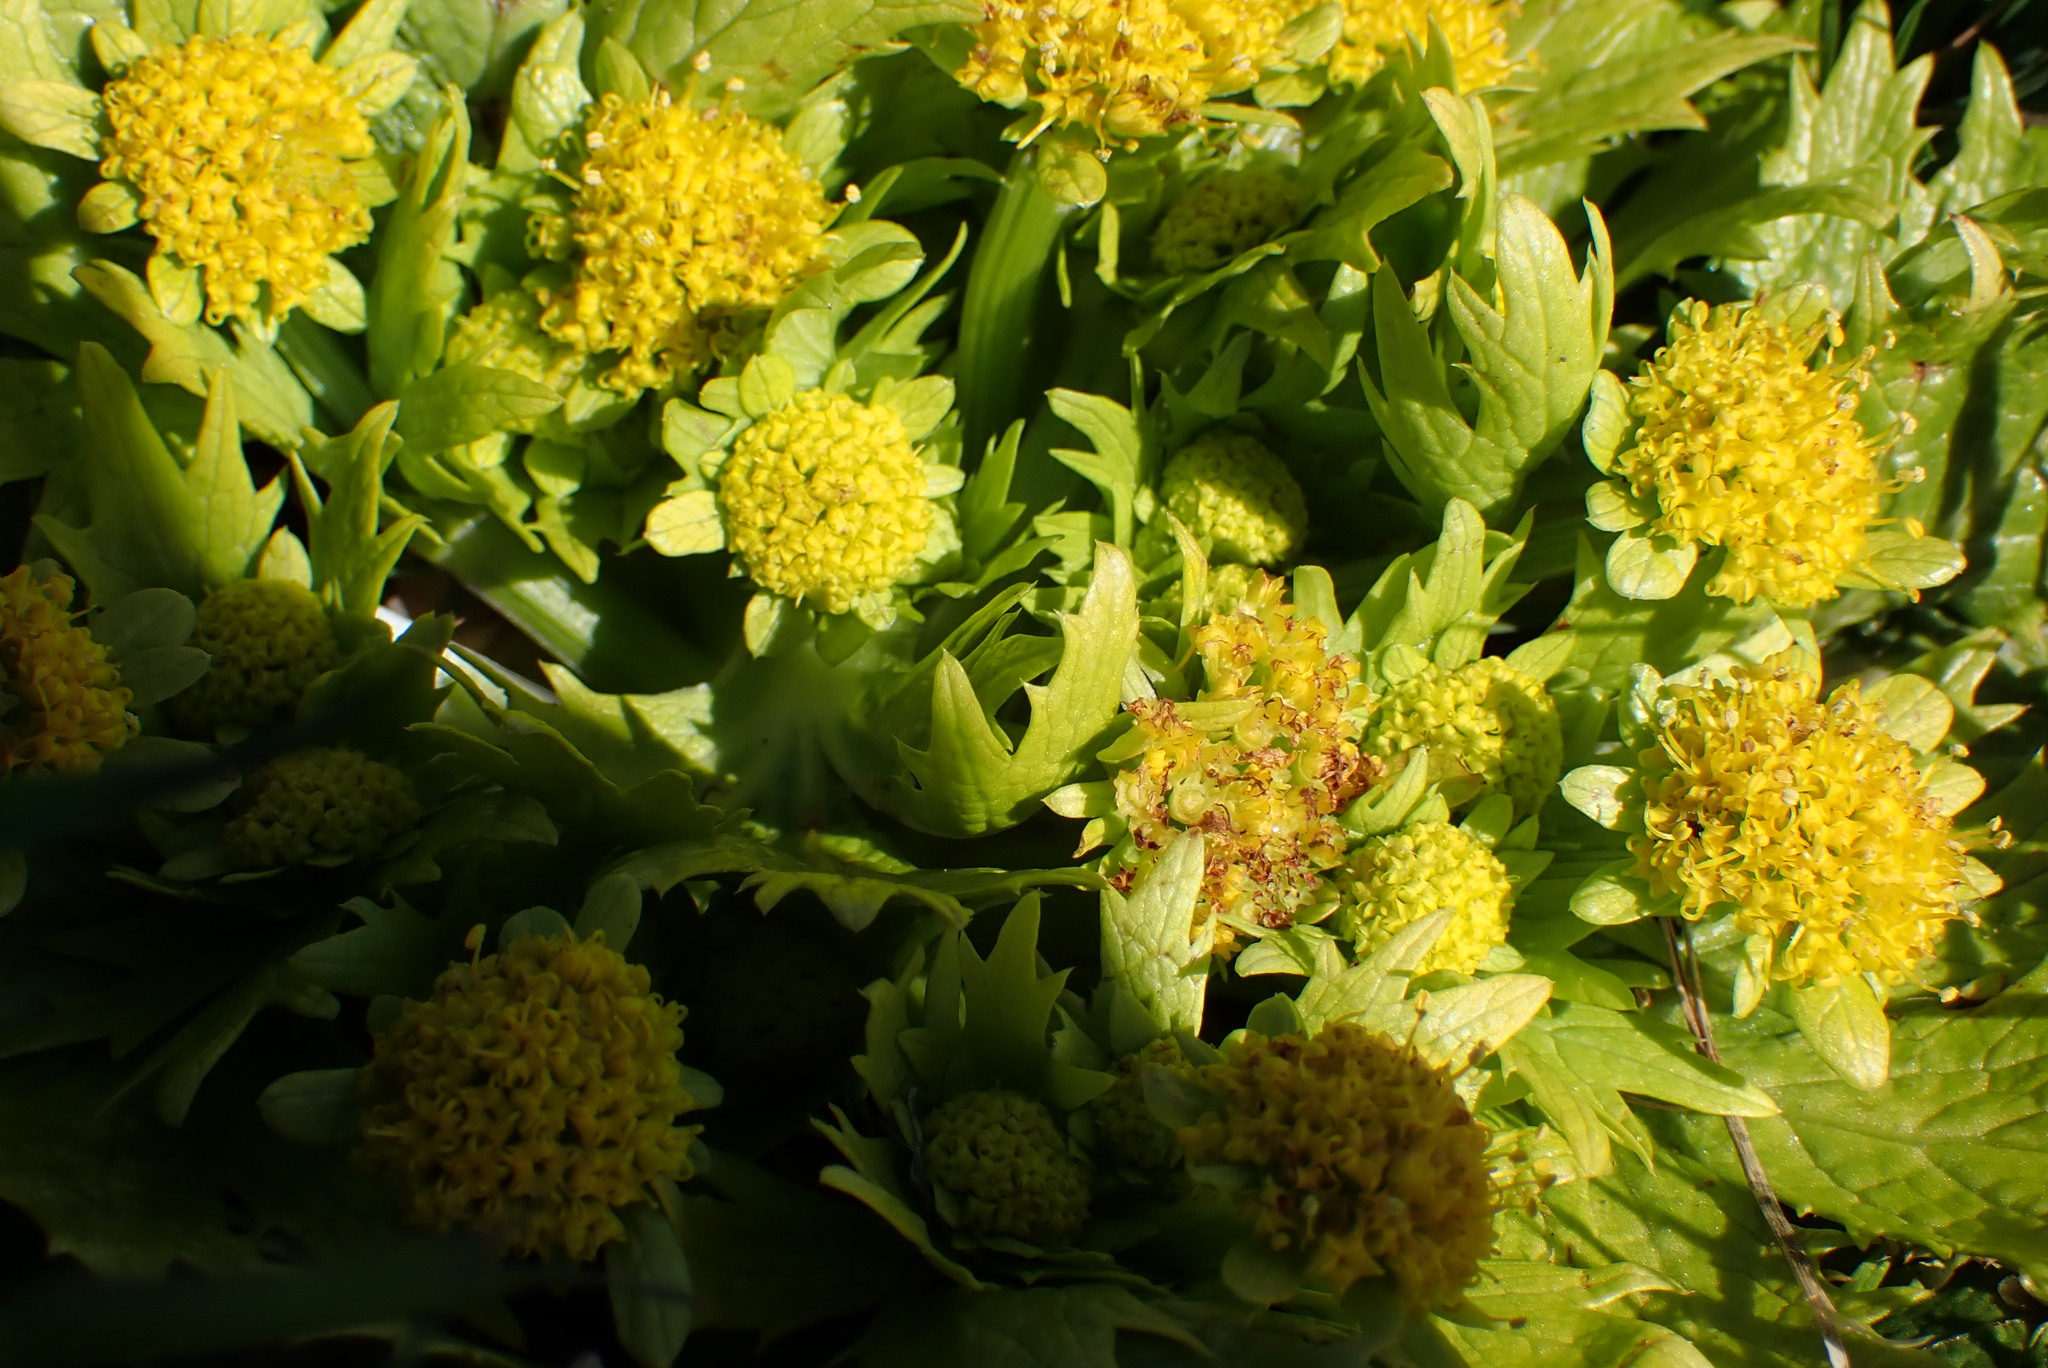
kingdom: Plantae
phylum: Tracheophyta
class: Magnoliopsida
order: Apiales
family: Apiaceae
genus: Sanicula
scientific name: Sanicula arctopoides
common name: Footsteps-of-spring
